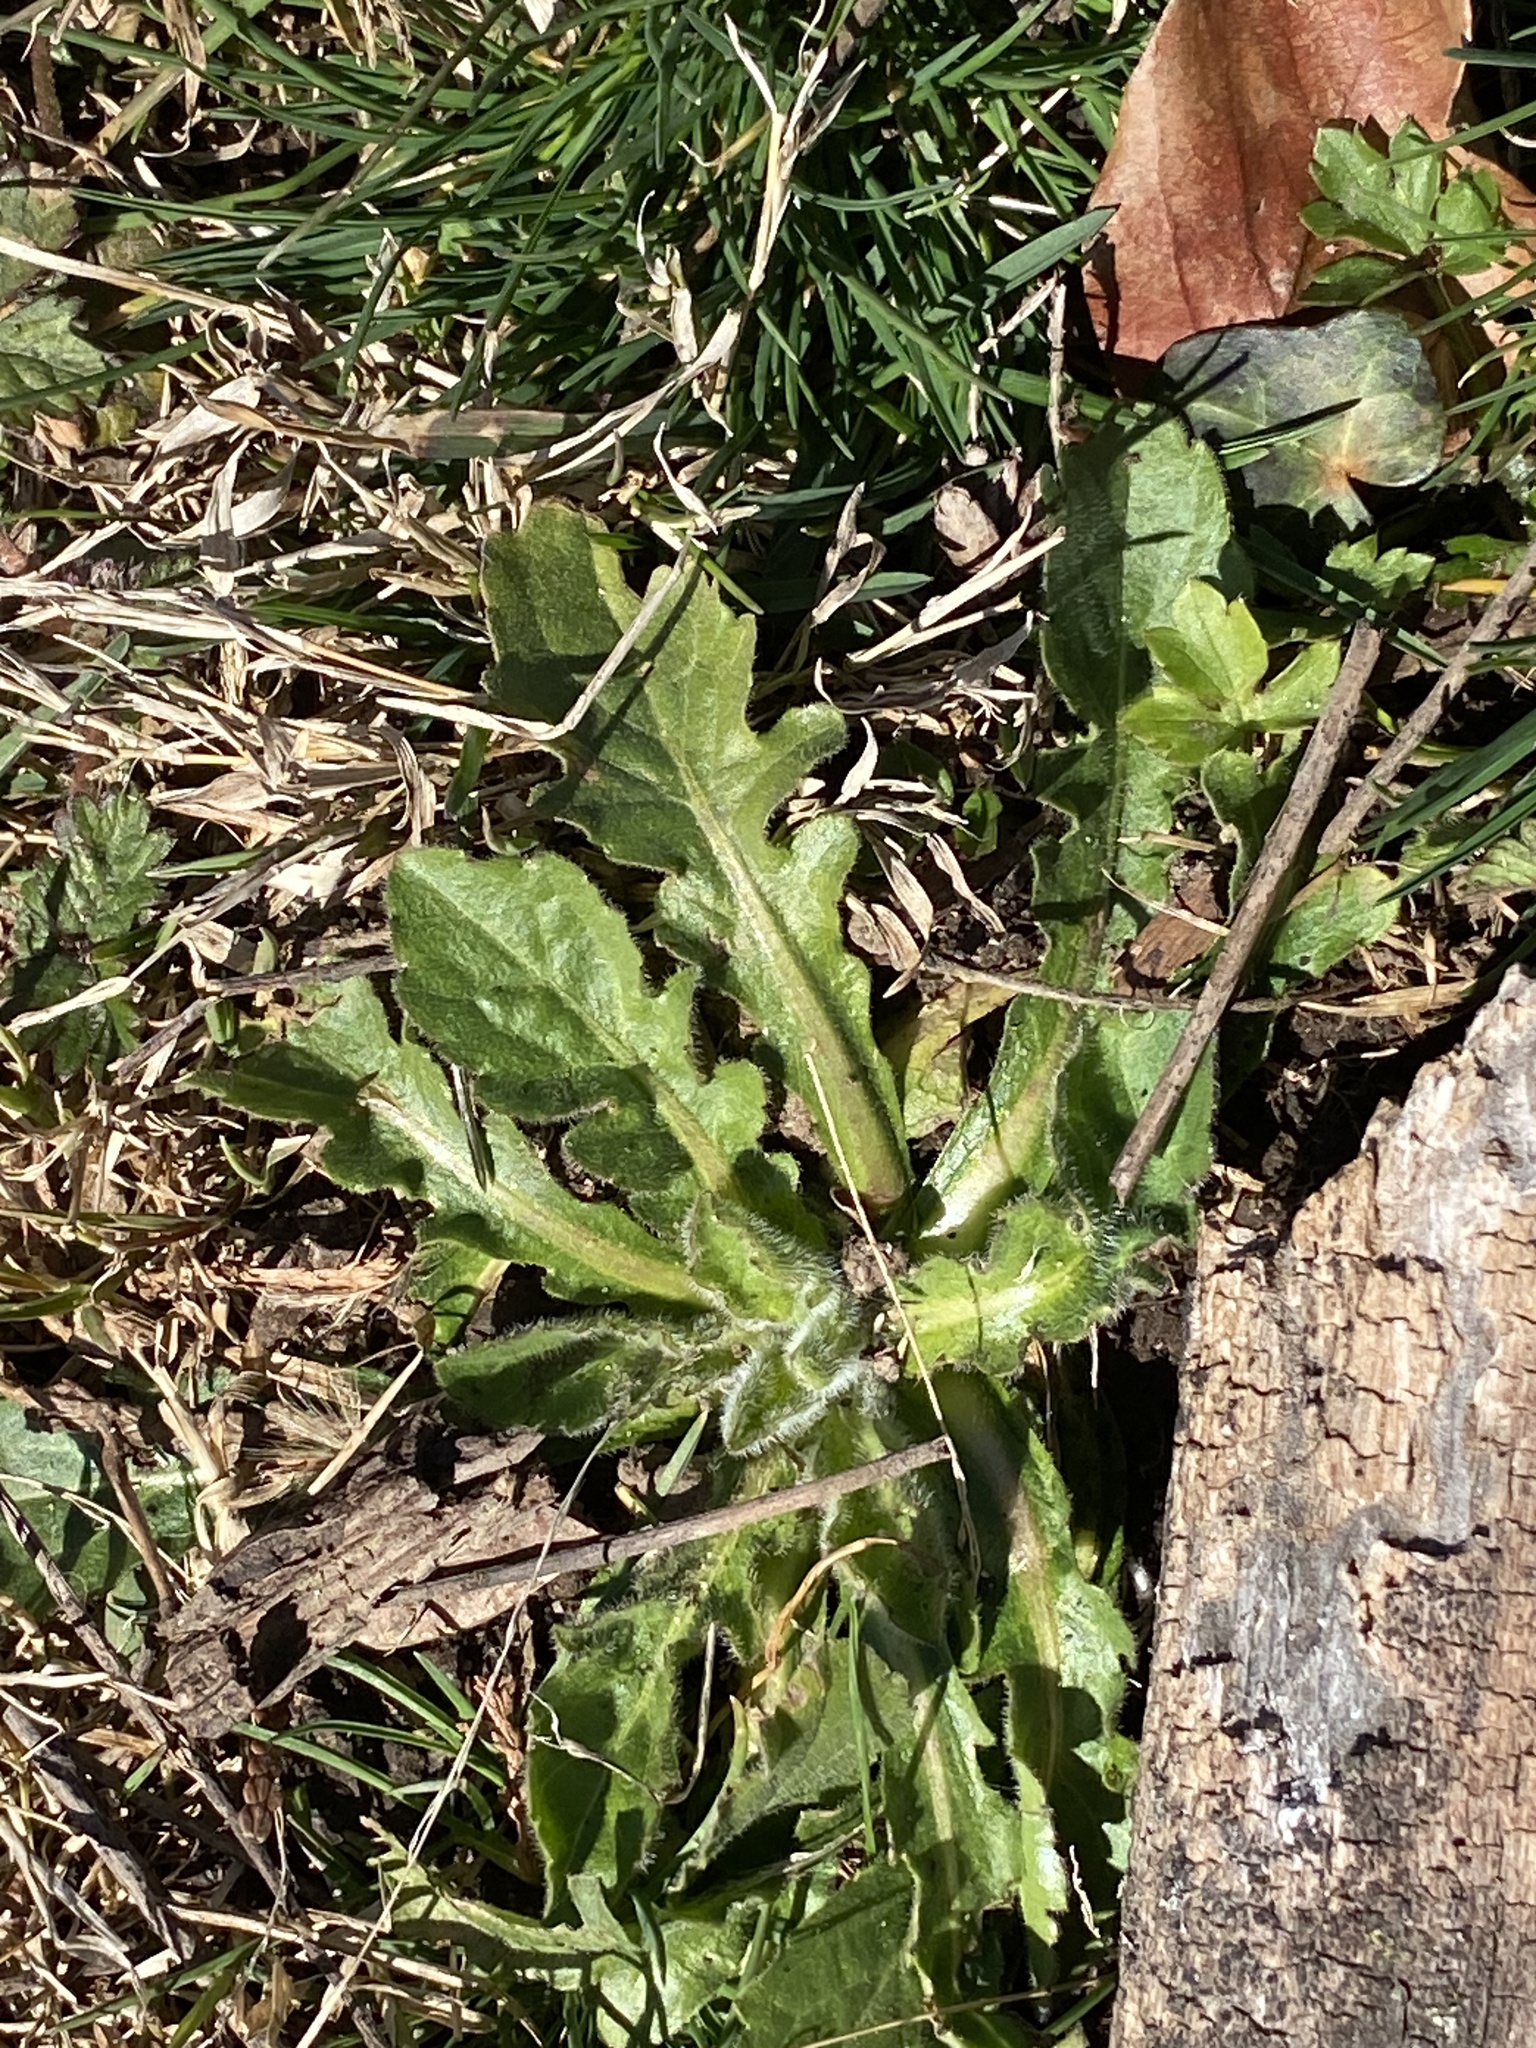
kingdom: Plantae
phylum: Tracheophyta
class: Magnoliopsida
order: Asterales
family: Asteraceae
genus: Hypochaeris
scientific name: Hypochaeris radicata
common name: Flatweed
